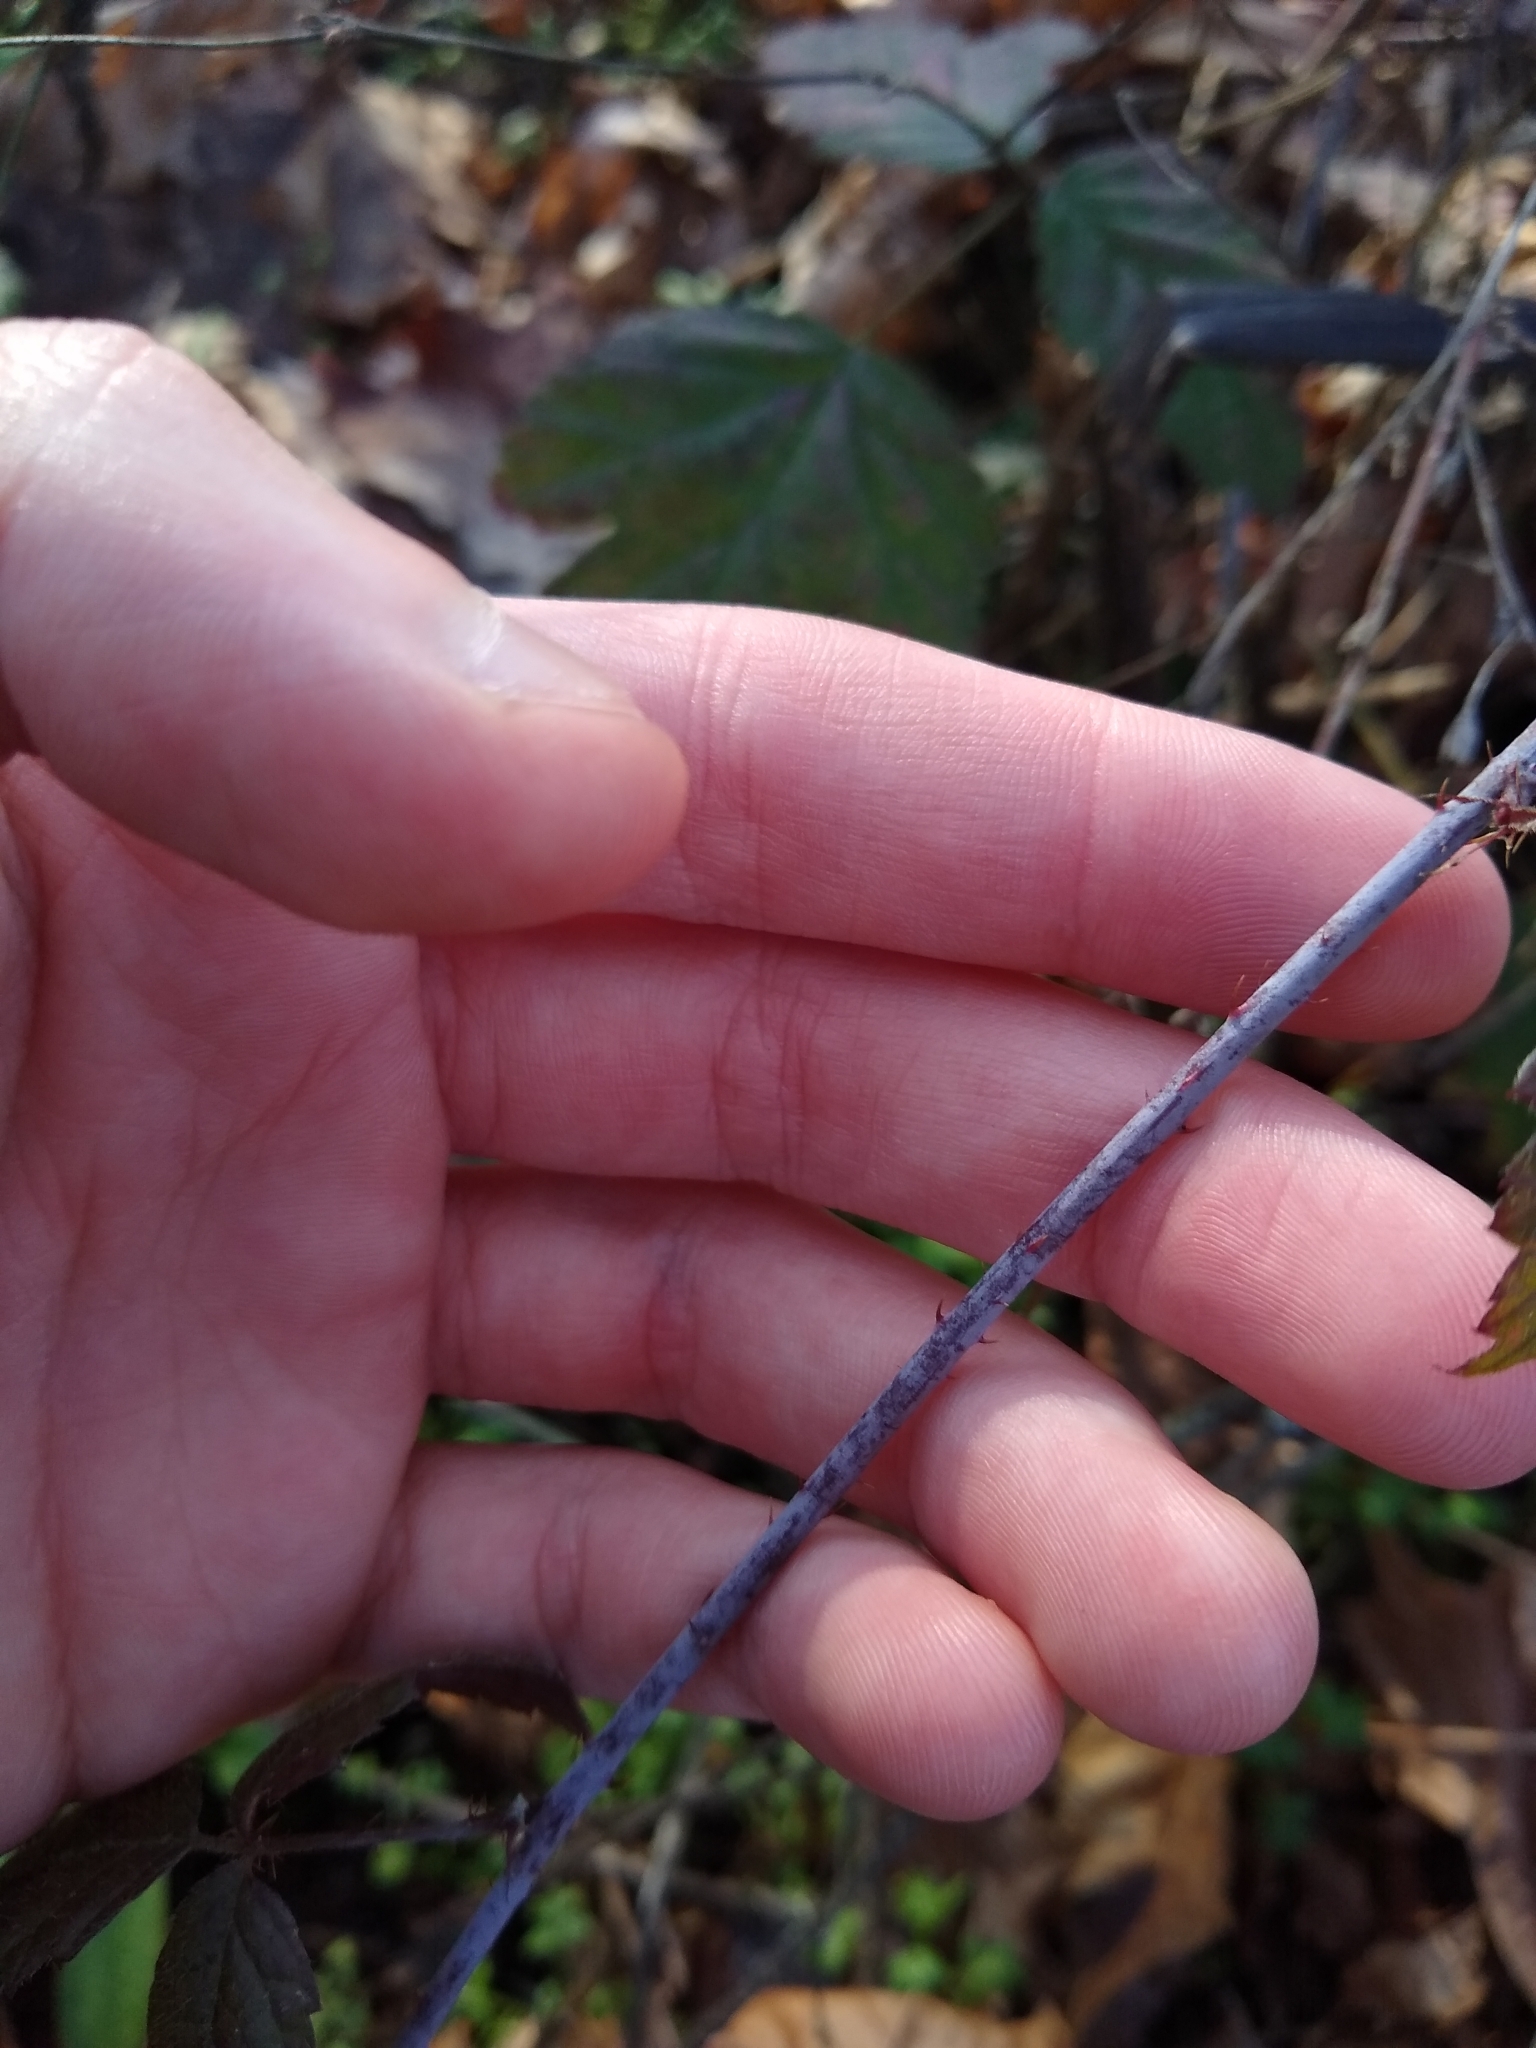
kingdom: Plantae
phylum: Tracheophyta
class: Magnoliopsida
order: Rosales
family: Rosaceae
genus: Rubus
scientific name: Rubus ursinus
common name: Pacific blackberry
